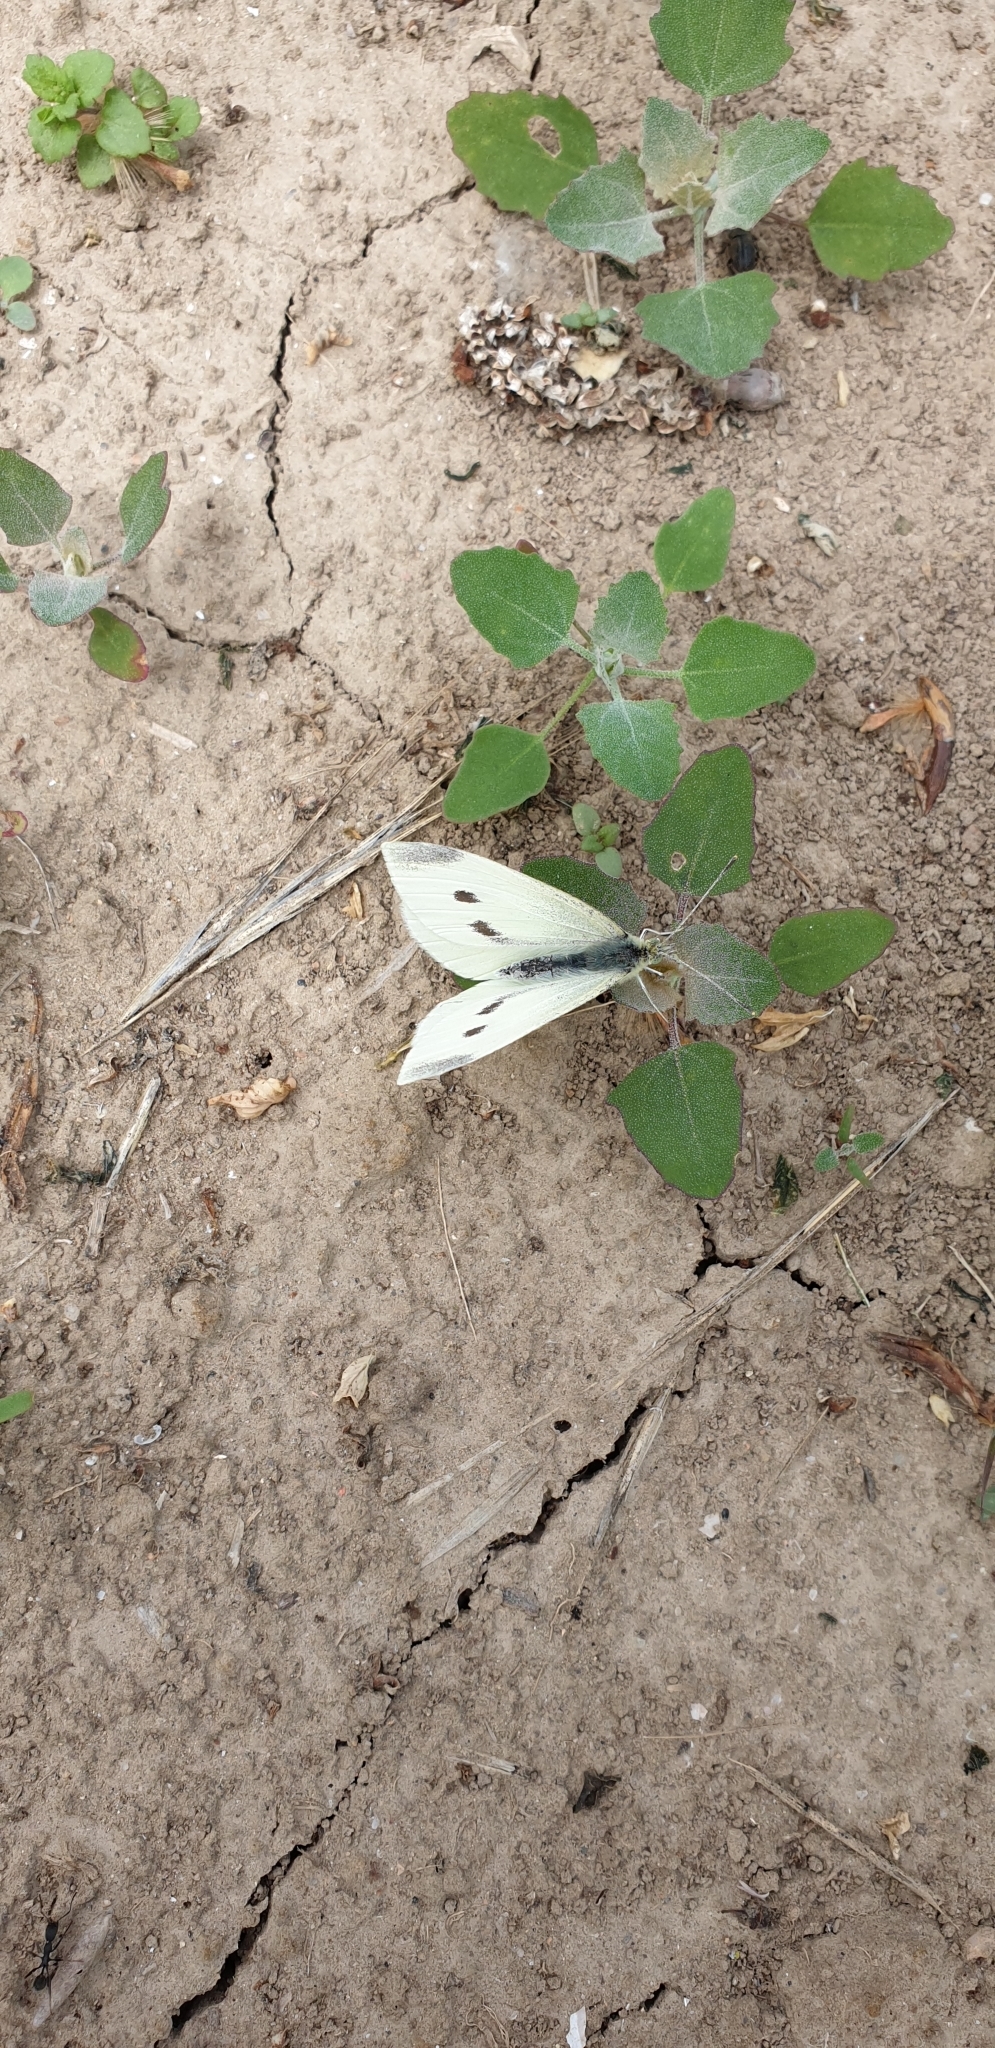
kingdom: Animalia
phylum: Arthropoda
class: Insecta
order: Lepidoptera
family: Pieridae
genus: Pieris
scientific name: Pieris rapae
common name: Small white
